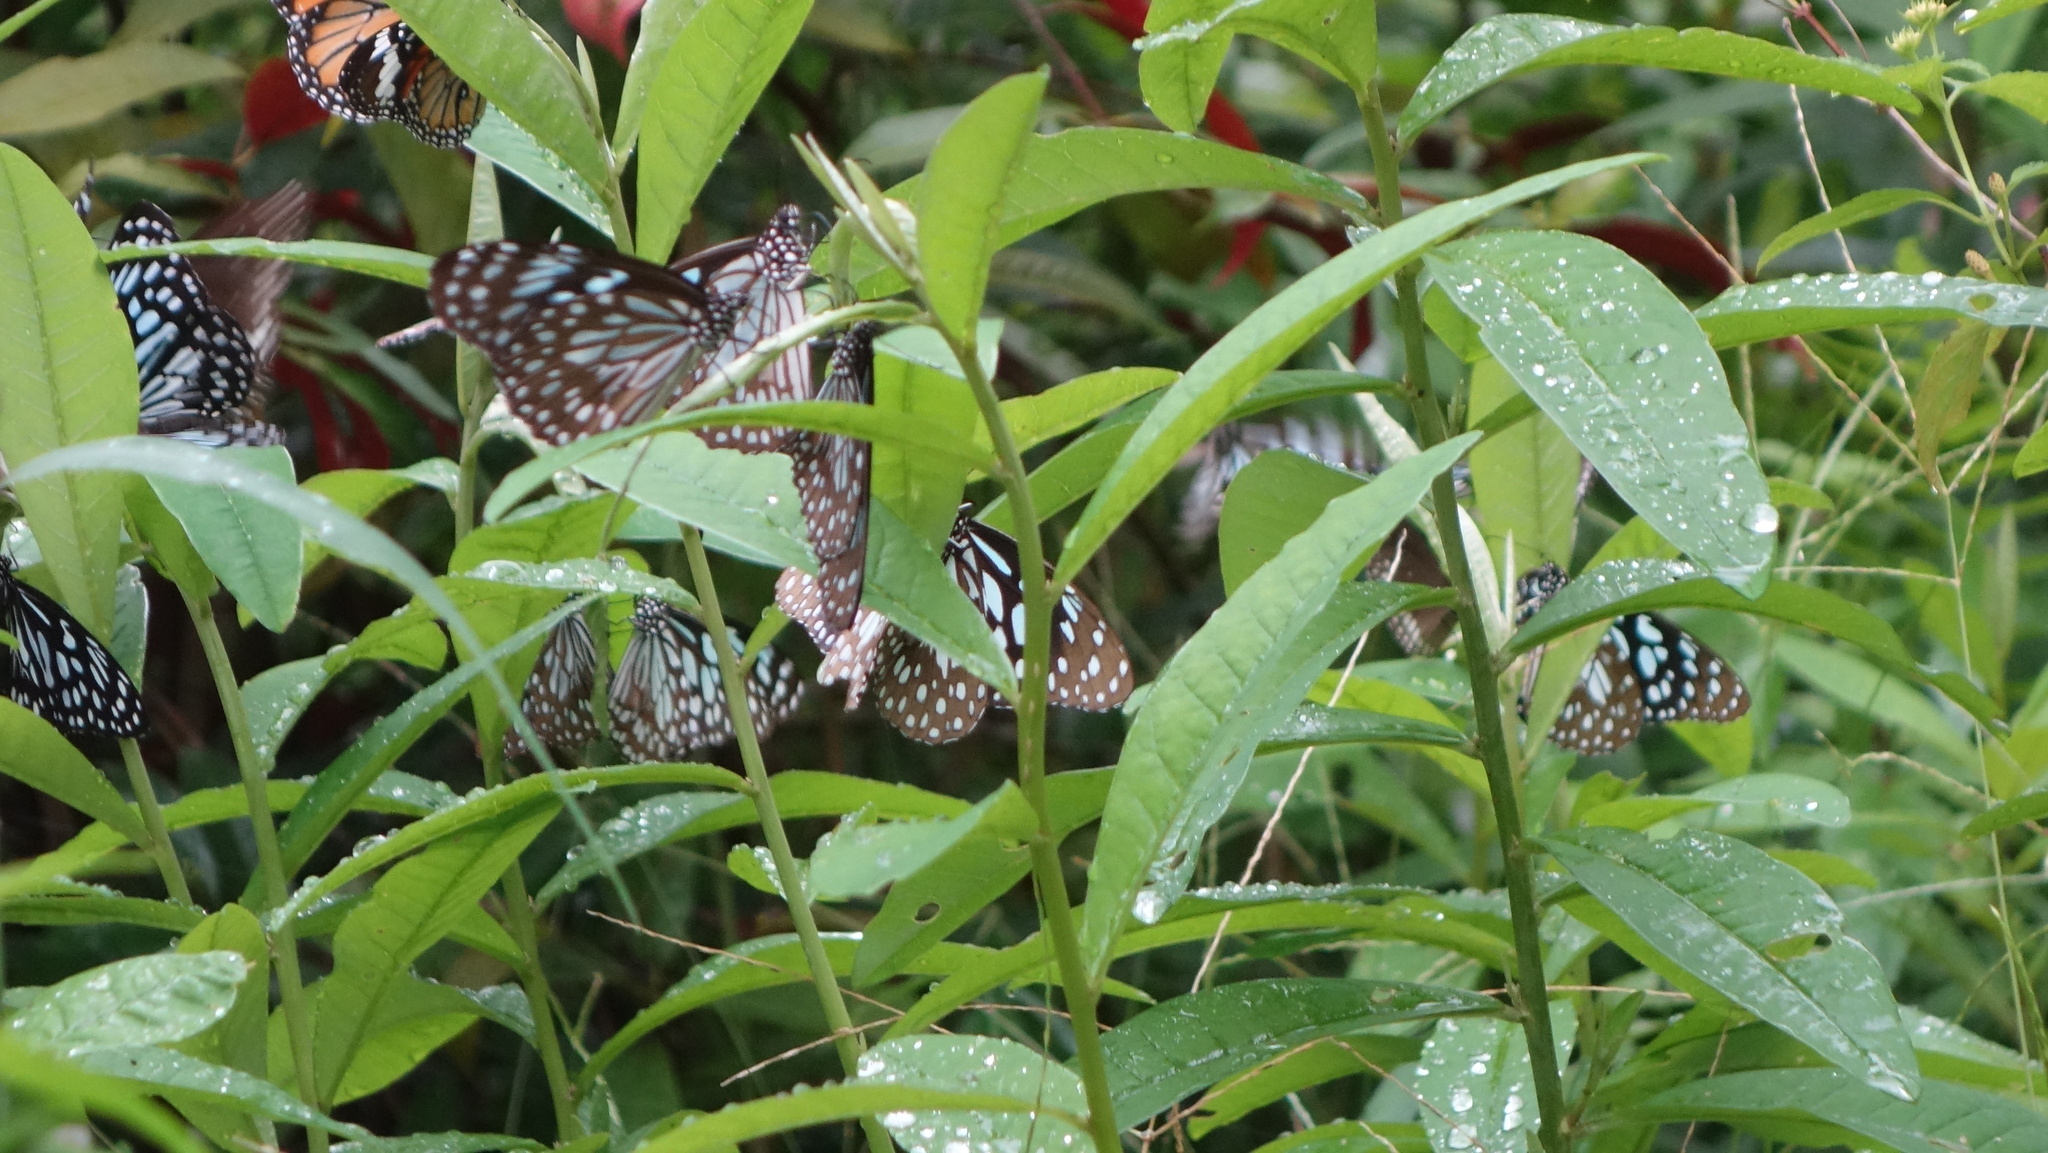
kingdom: Animalia
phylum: Arthropoda
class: Insecta
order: Lepidoptera
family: Nymphalidae
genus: Tirumala
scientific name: Tirumala septentrionis
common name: Dark blue tiger butterfly
